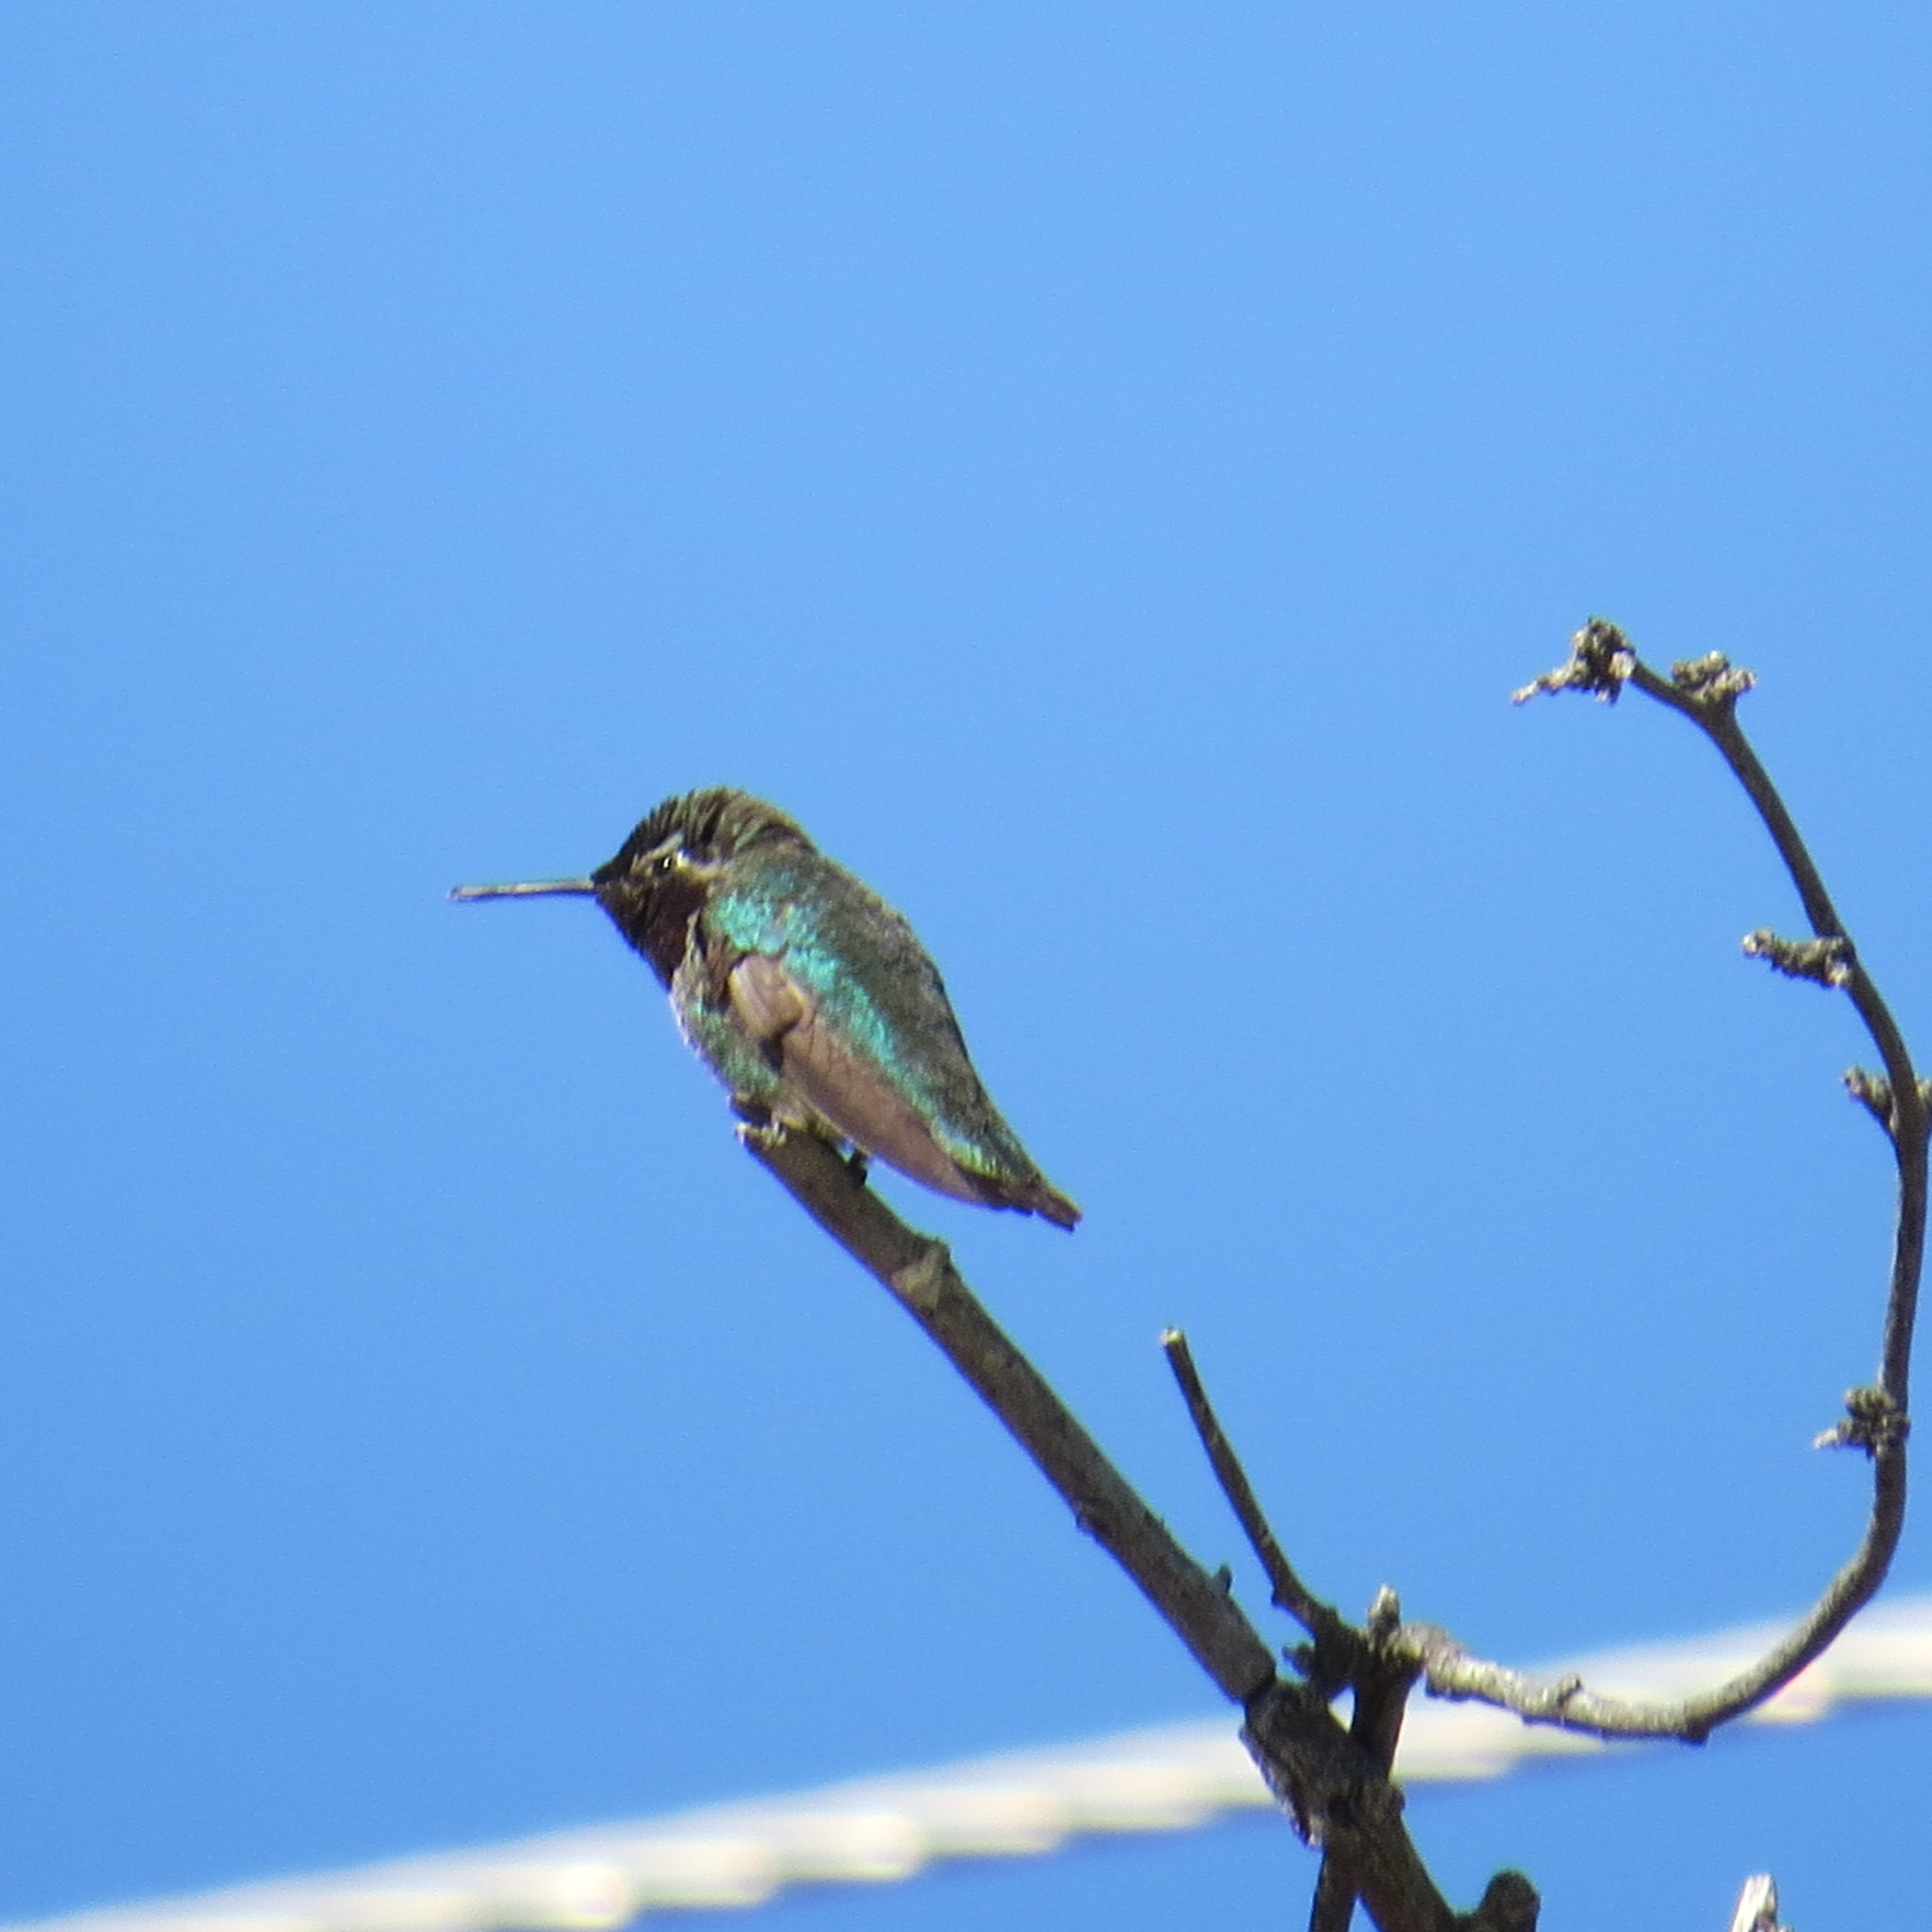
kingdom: Animalia
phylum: Chordata
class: Aves
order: Apodiformes
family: Trochilidae
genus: Calypte
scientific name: Calypte anna
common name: Anna's hummingbird
